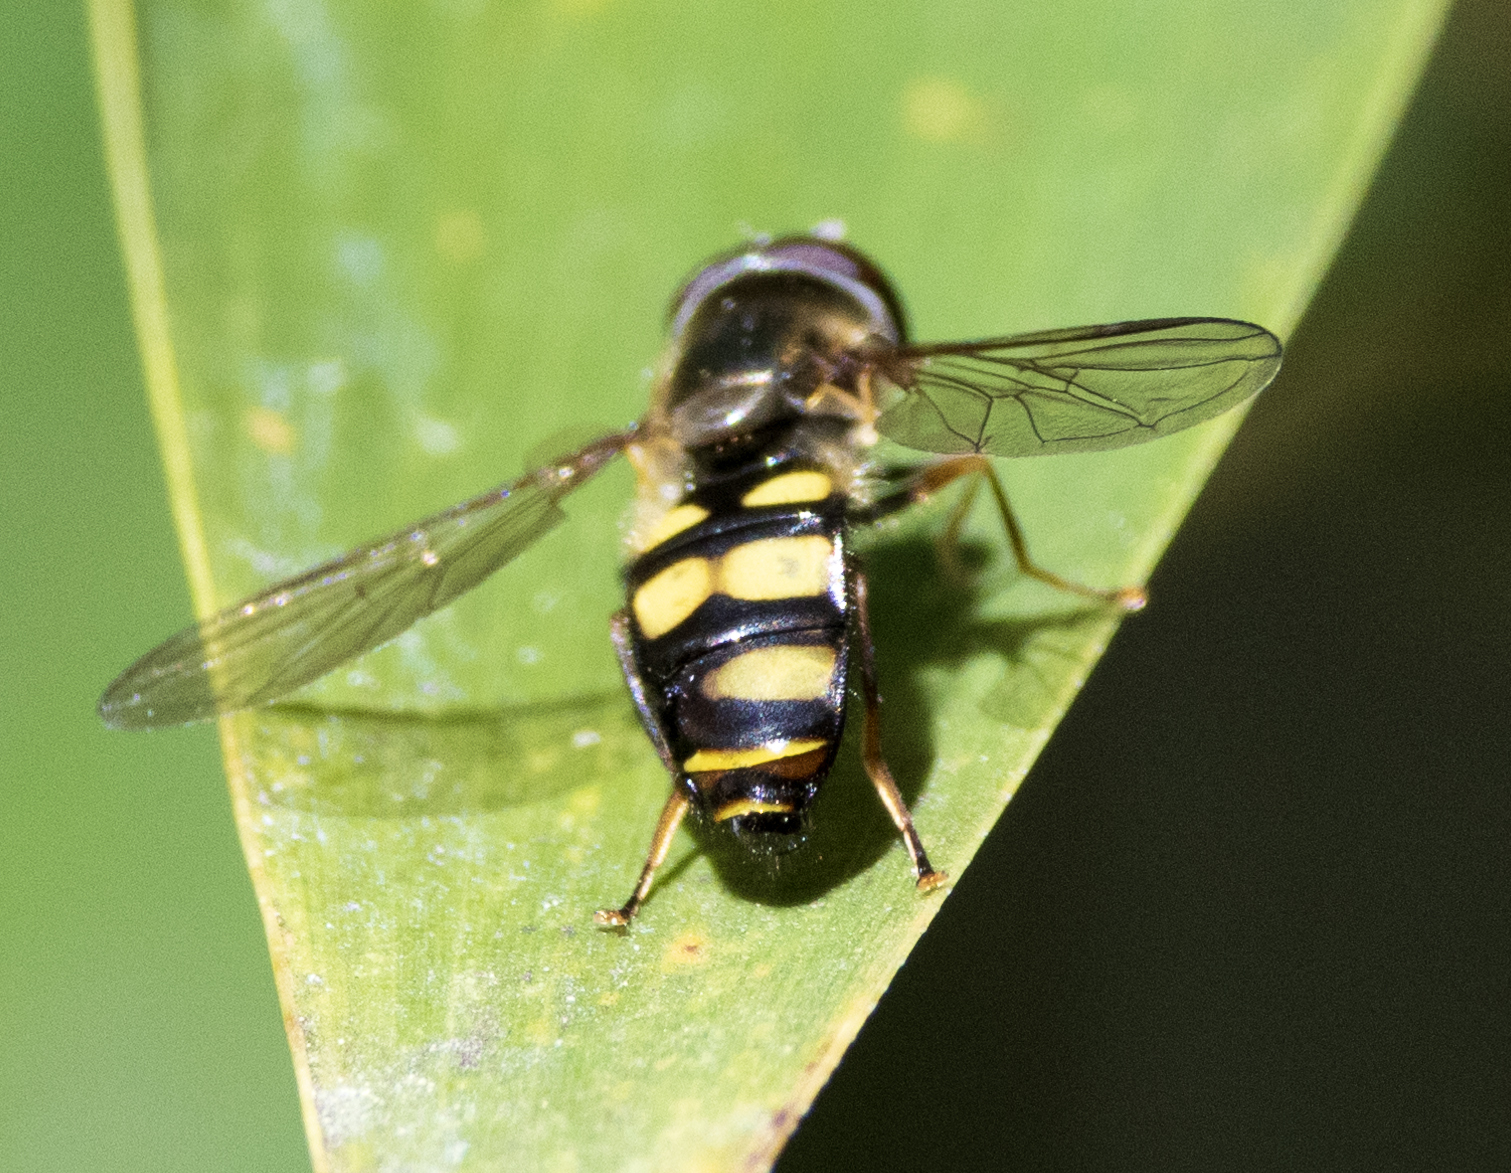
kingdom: Animalia
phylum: Arthropoda
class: Insecta
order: Diptera
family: Syrphidae
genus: Eupeodes
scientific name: Eupeodes
